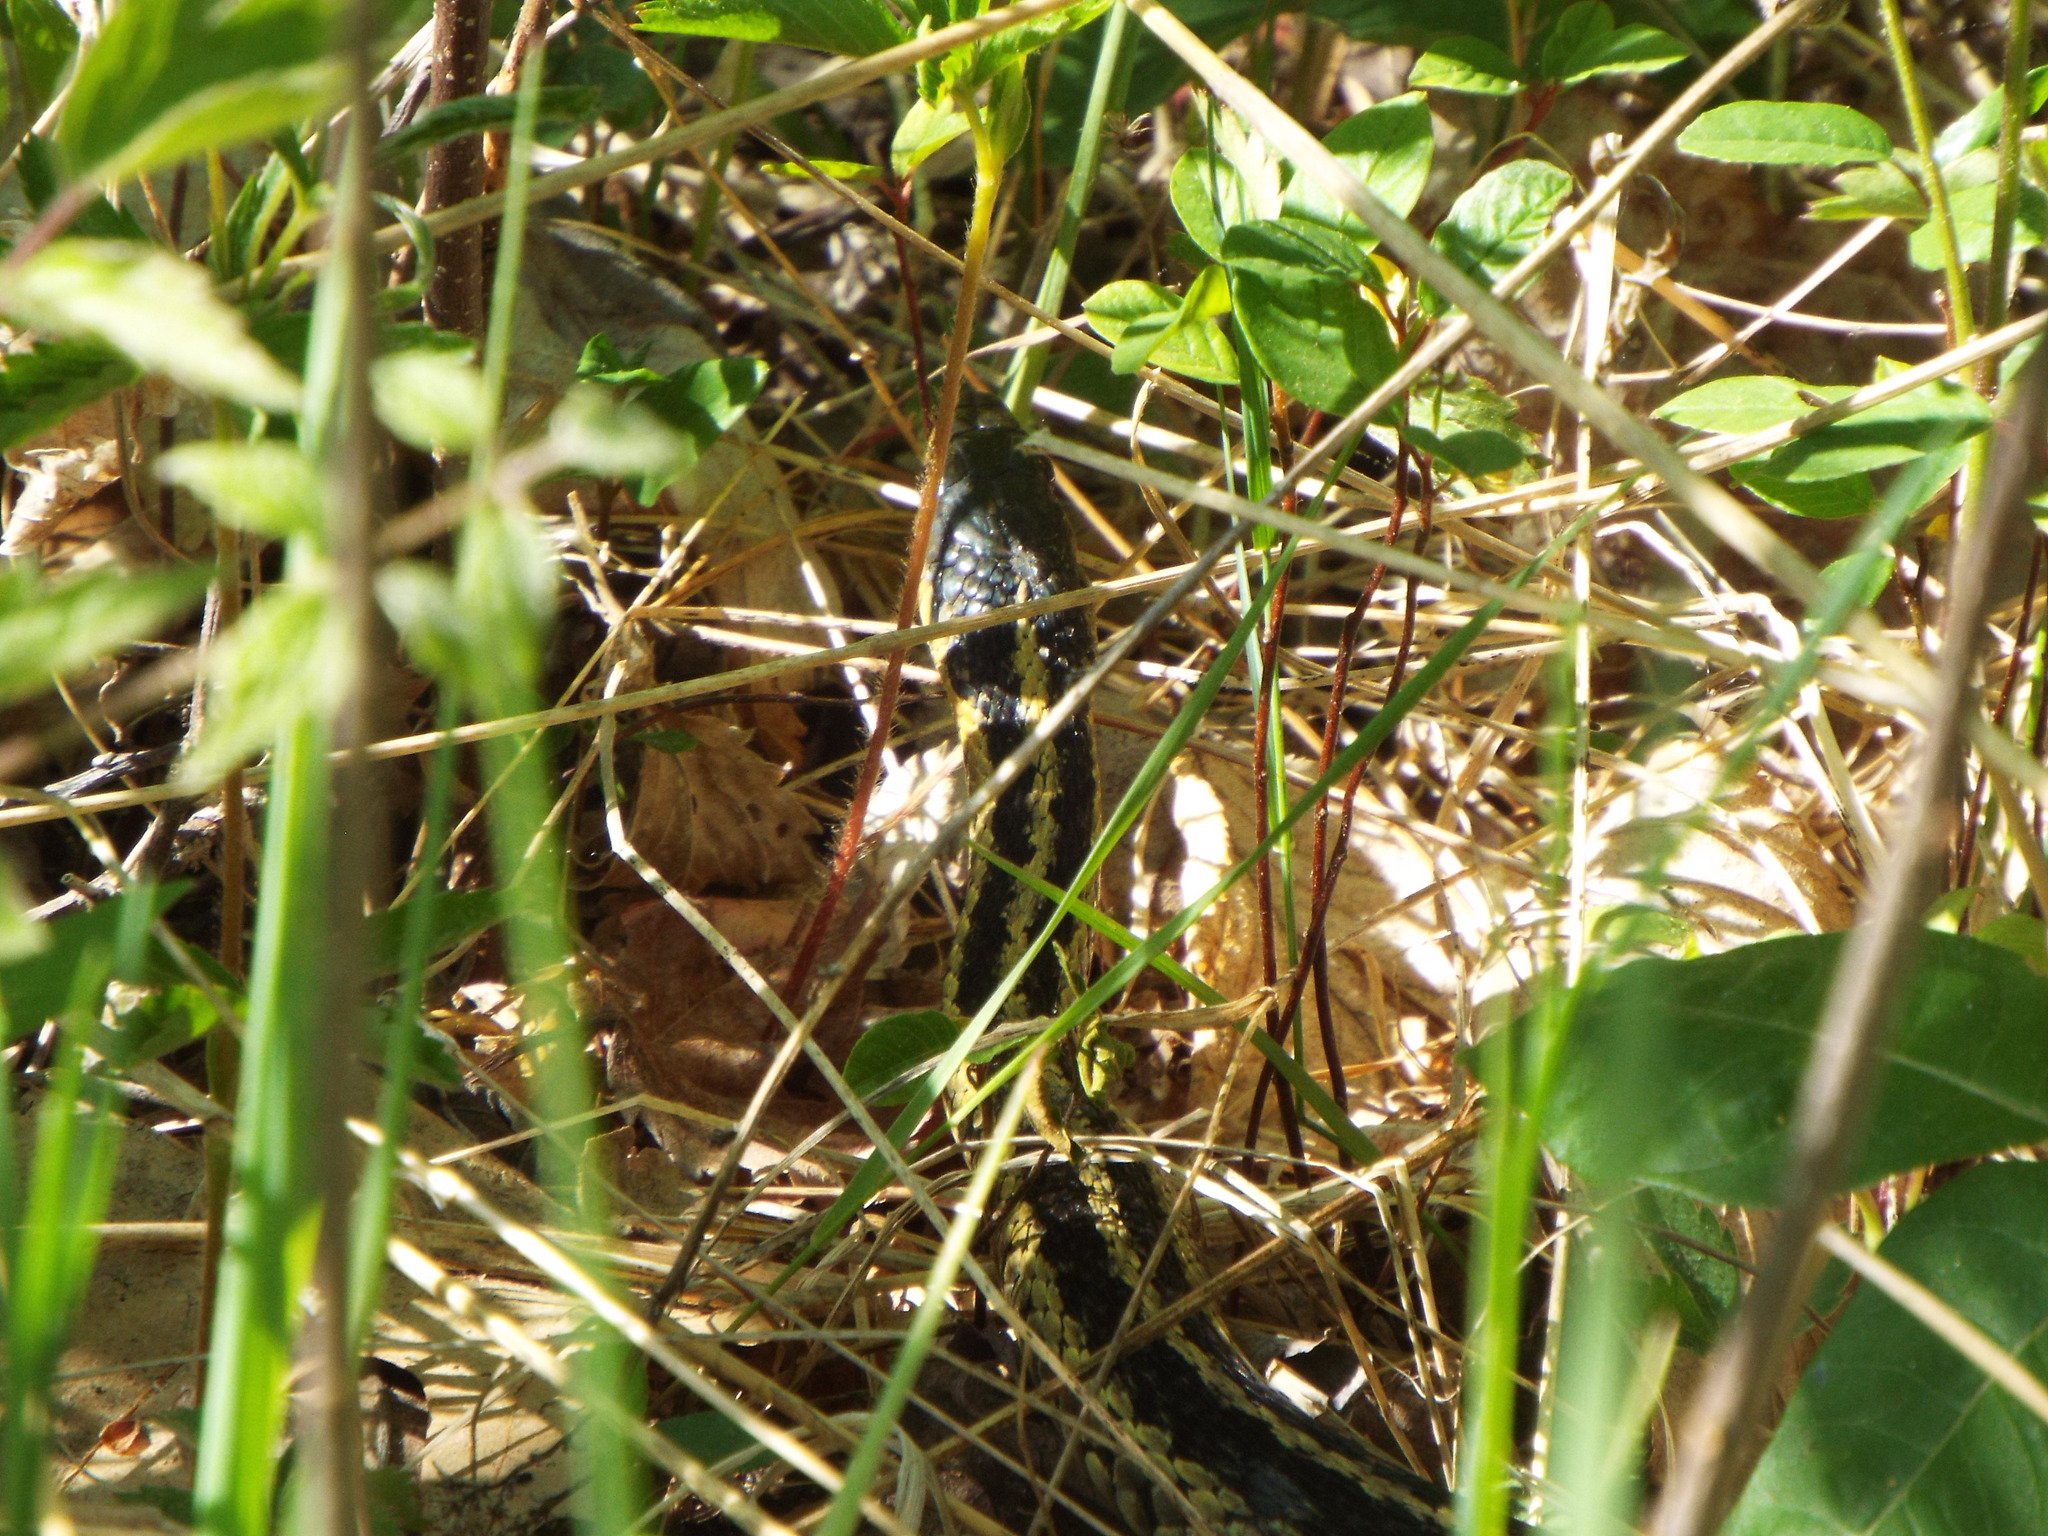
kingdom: Animalia
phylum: Chordata
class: Squamata
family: Colubridae
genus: Thamnophis
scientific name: Thamnophis sirtalis
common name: Common garter snake
